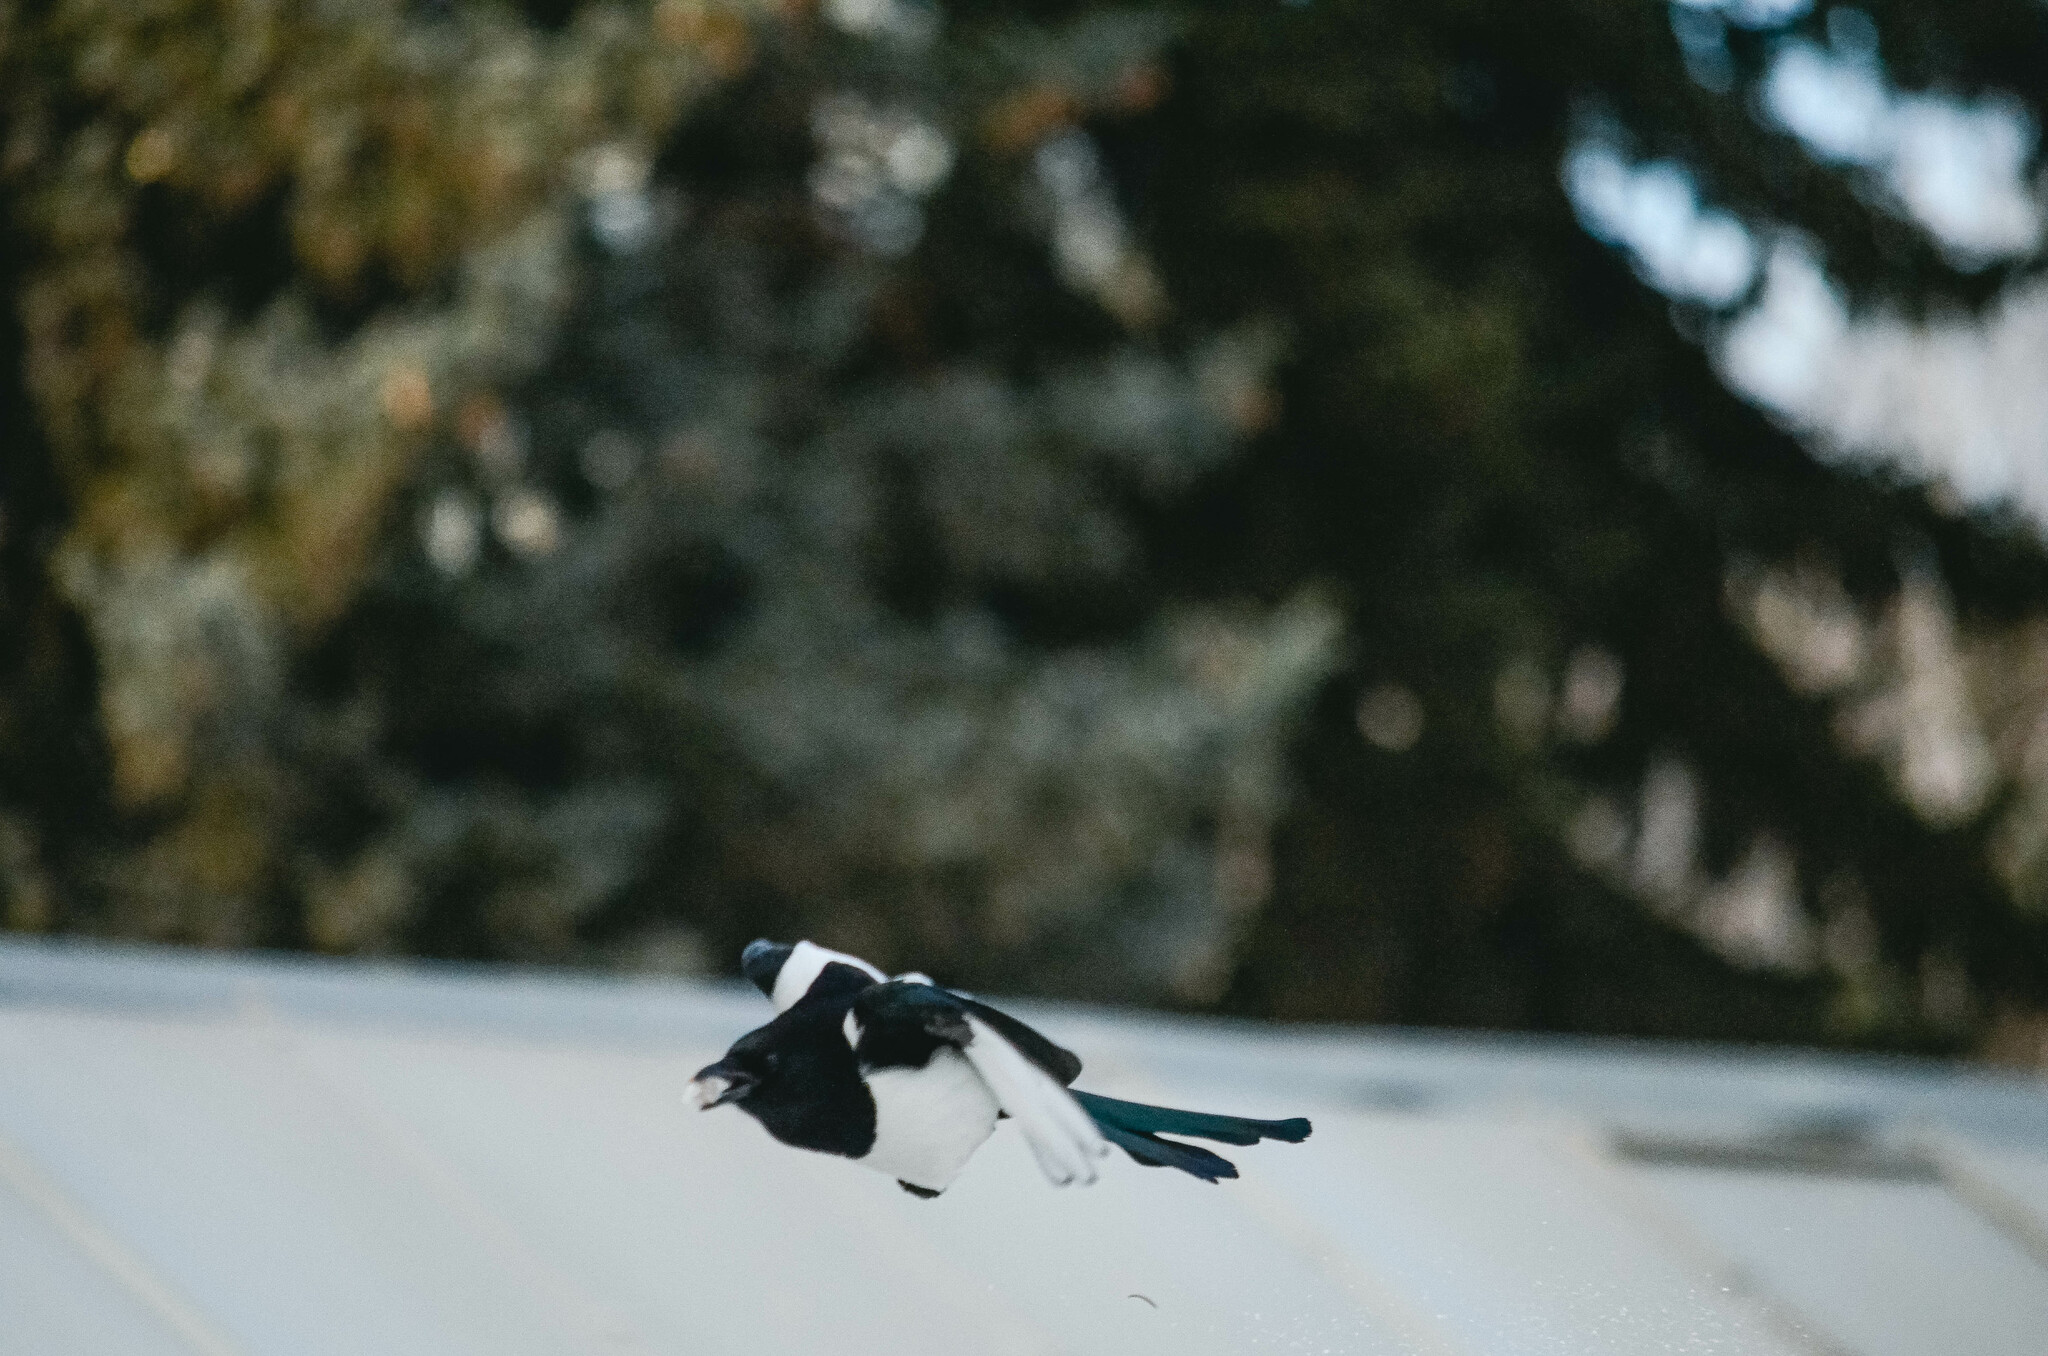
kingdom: Animalia
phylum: Chordata
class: Aves
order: Passeriformes
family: Corvidae
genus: Pica
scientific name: Pica pica
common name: Eurasian magpie
